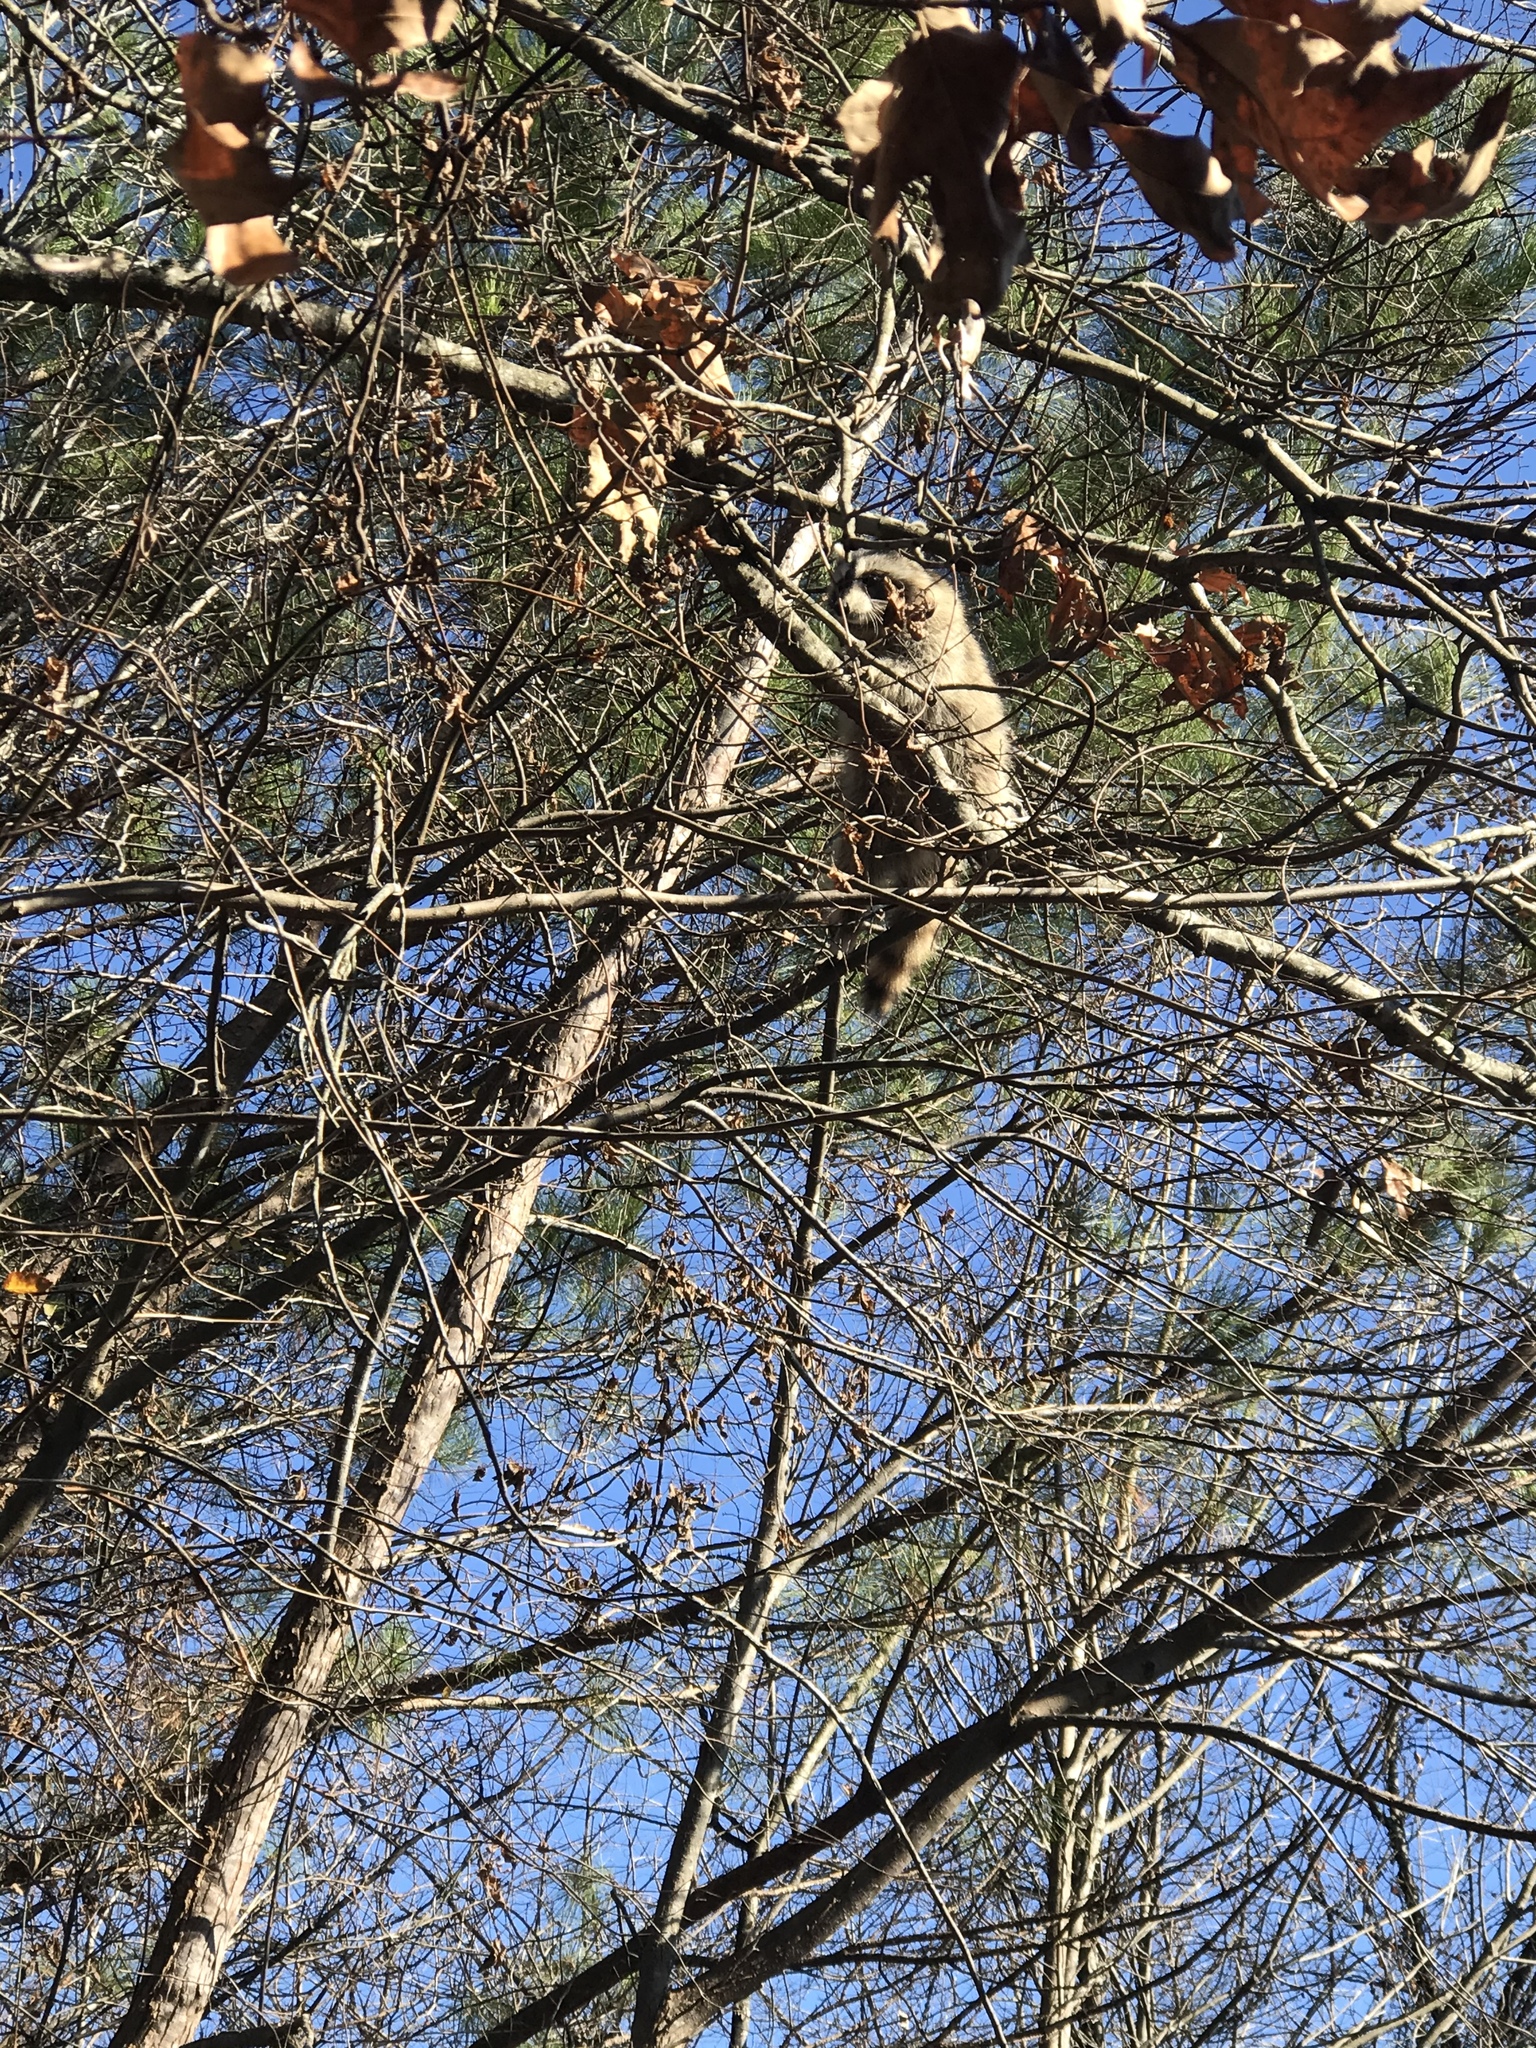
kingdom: Animalia
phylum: Chordata
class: Mammalia
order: Carnivora
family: Procyonidae
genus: Procyon
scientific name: Procyon lotor
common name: Raccoon
